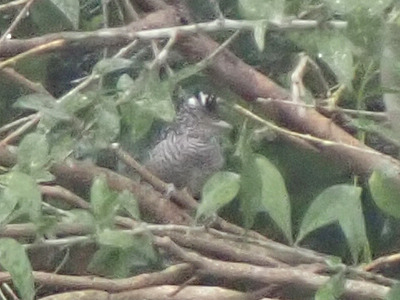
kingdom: Animalia
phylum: Chordata
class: Aves
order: Passeriformes
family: Thamnophilidae
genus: Thamnophilus
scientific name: Thamnophilus doliatus
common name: Barred antshrike
